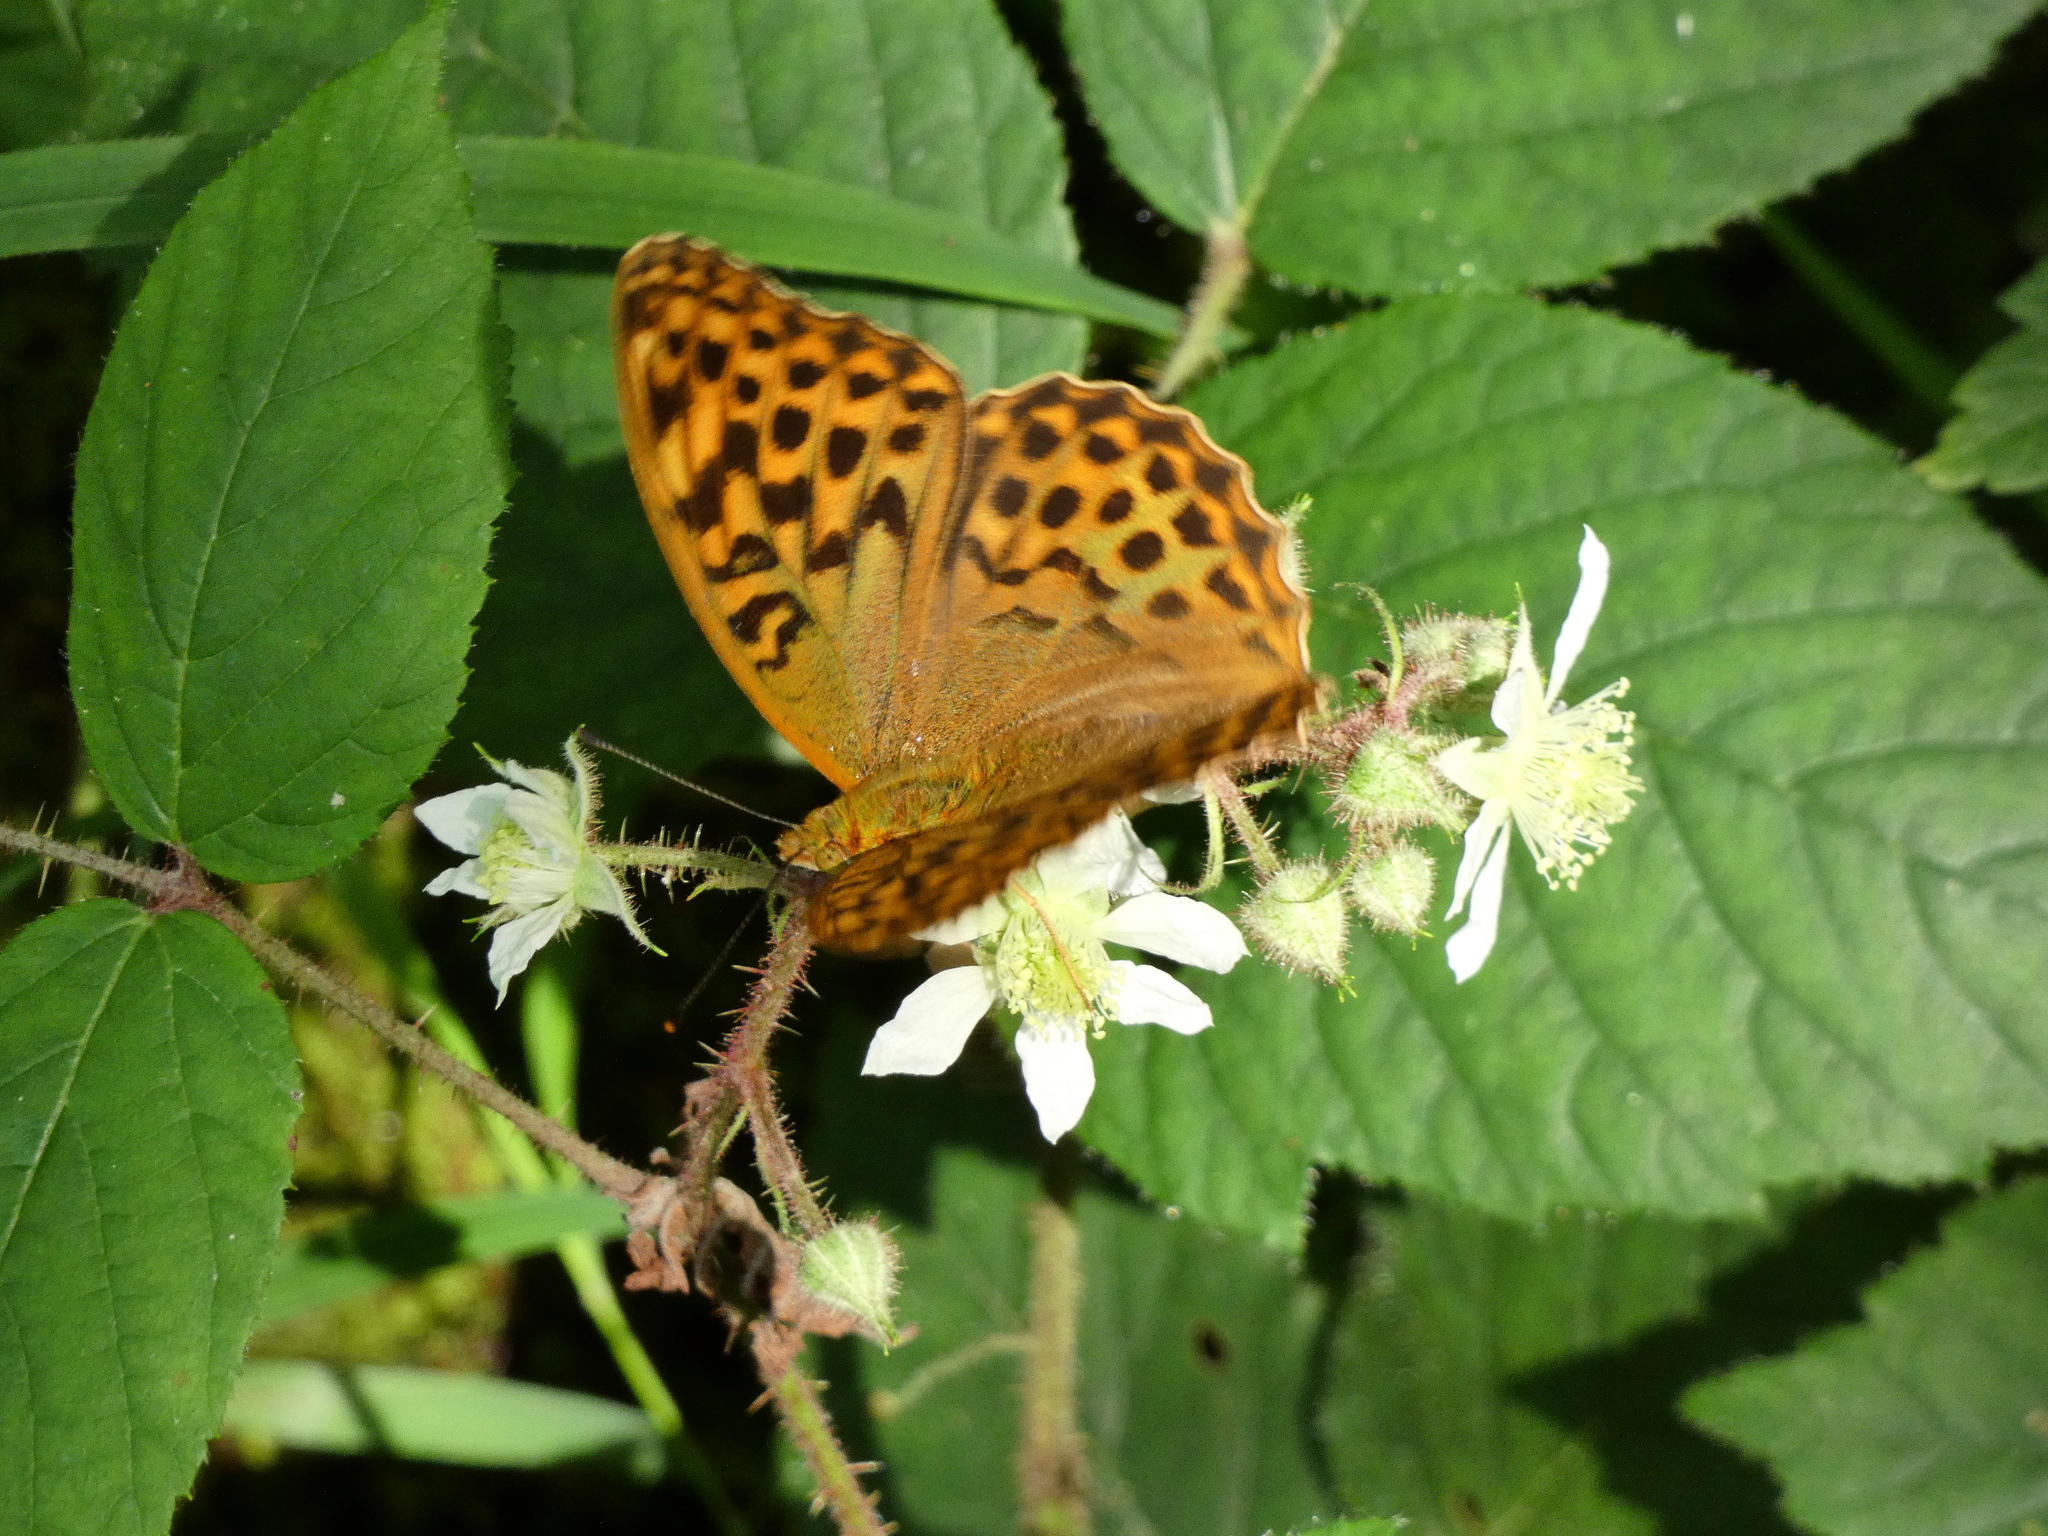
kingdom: Animalia
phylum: Arthropoda
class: Insecta
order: Lepidoptera
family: Nymphalidae
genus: Argynnis
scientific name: Argynnis paphia
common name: Silver-washed fritillary
